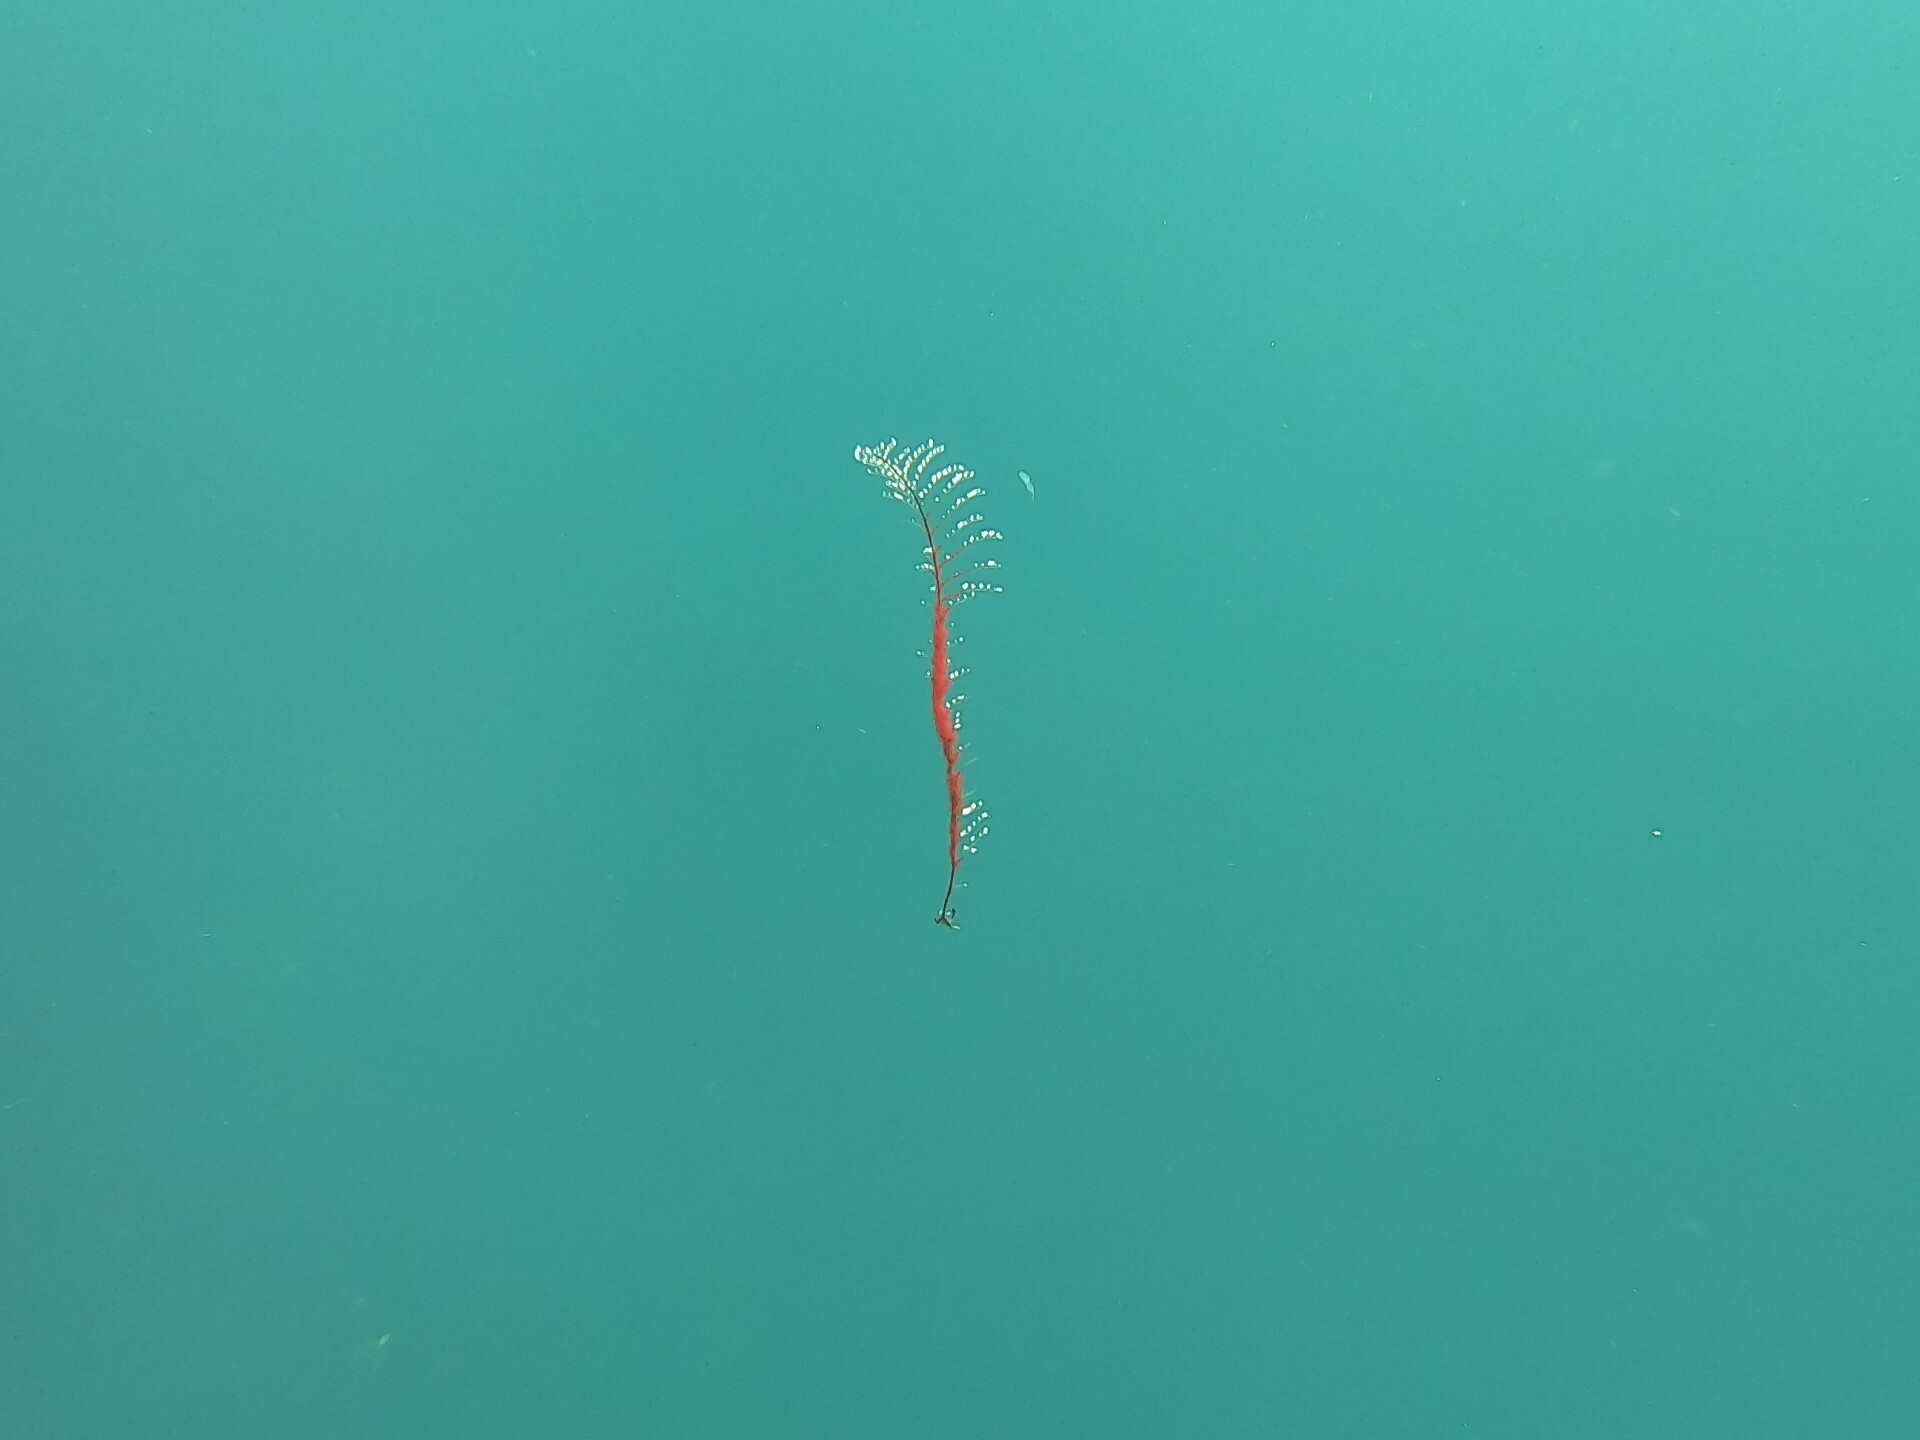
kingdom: Animalia
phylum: Cnidaria
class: Hydrozoa
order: Anthoathecata
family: Pennariidae
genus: Pennaria
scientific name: Pennaria disticha
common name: Feather hydroid
